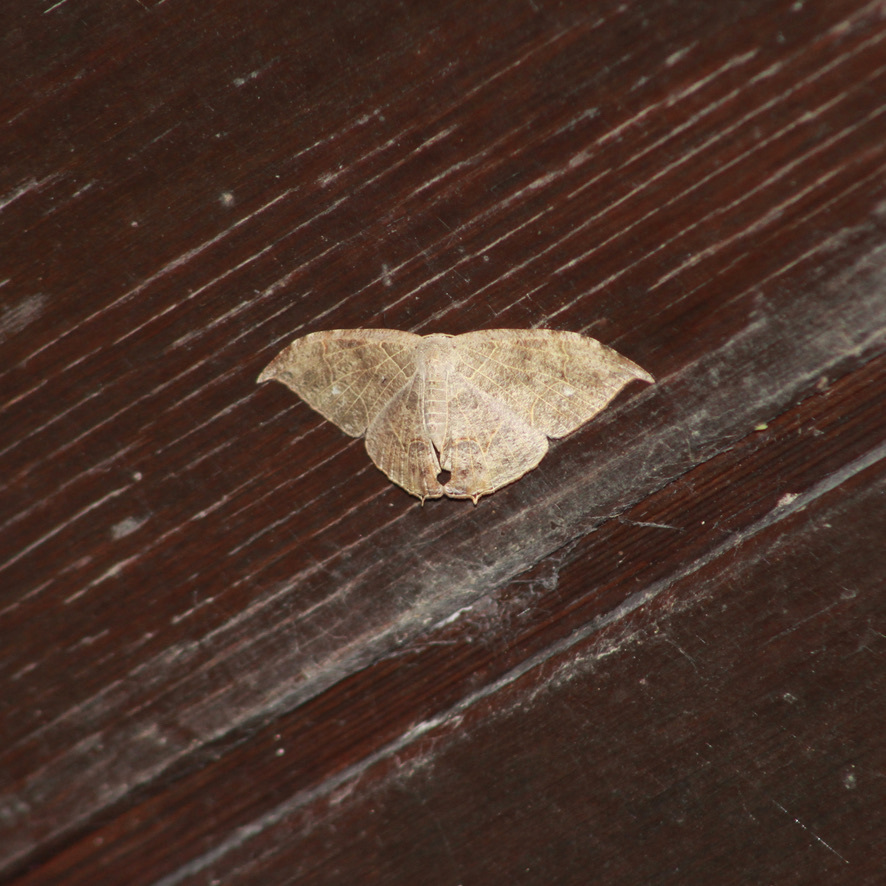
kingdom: Animalia
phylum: Arthropoda
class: Insecta
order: Lepidoptera
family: Uraniidae
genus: Syngria
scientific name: Syngria druidaria
